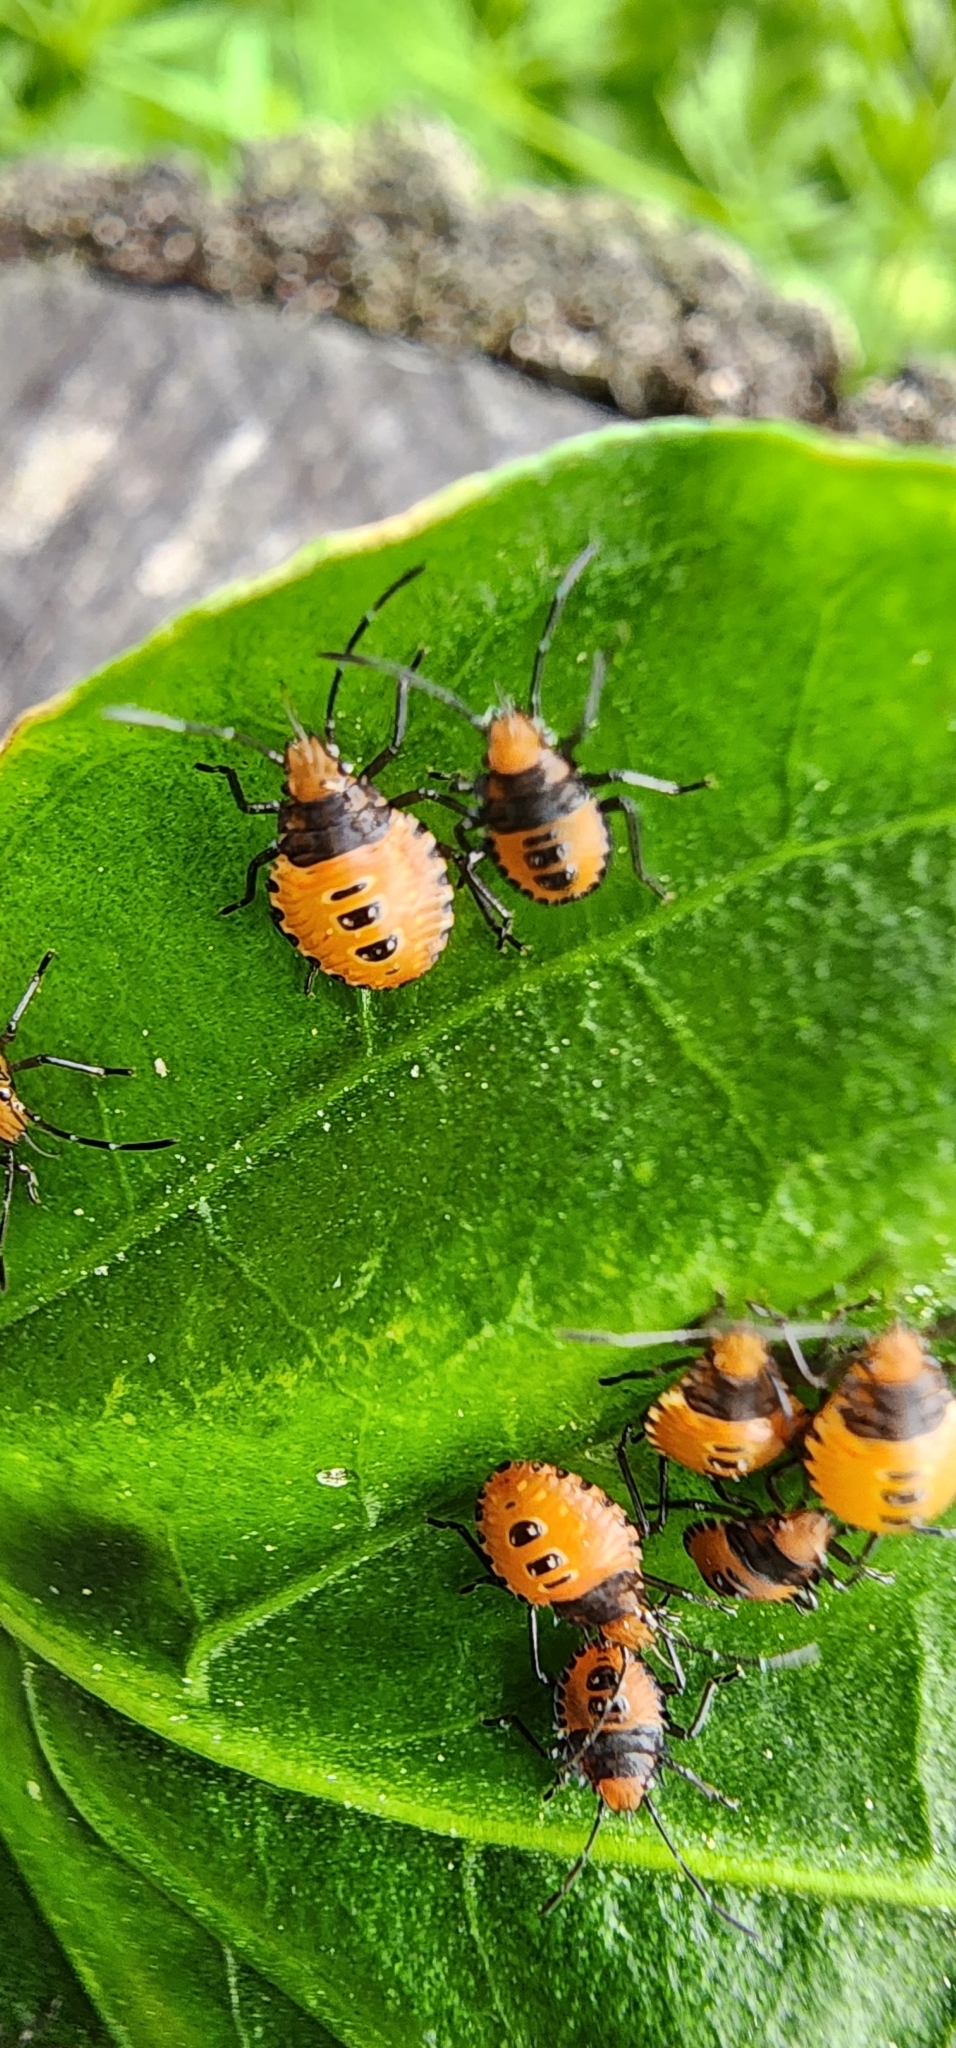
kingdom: Animalia
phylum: Arthropoda
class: Insecta
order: Hemiptera
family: Pentatomidae
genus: Arvelius
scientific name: Arvelius albopunctatus
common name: Tomato stink bug
